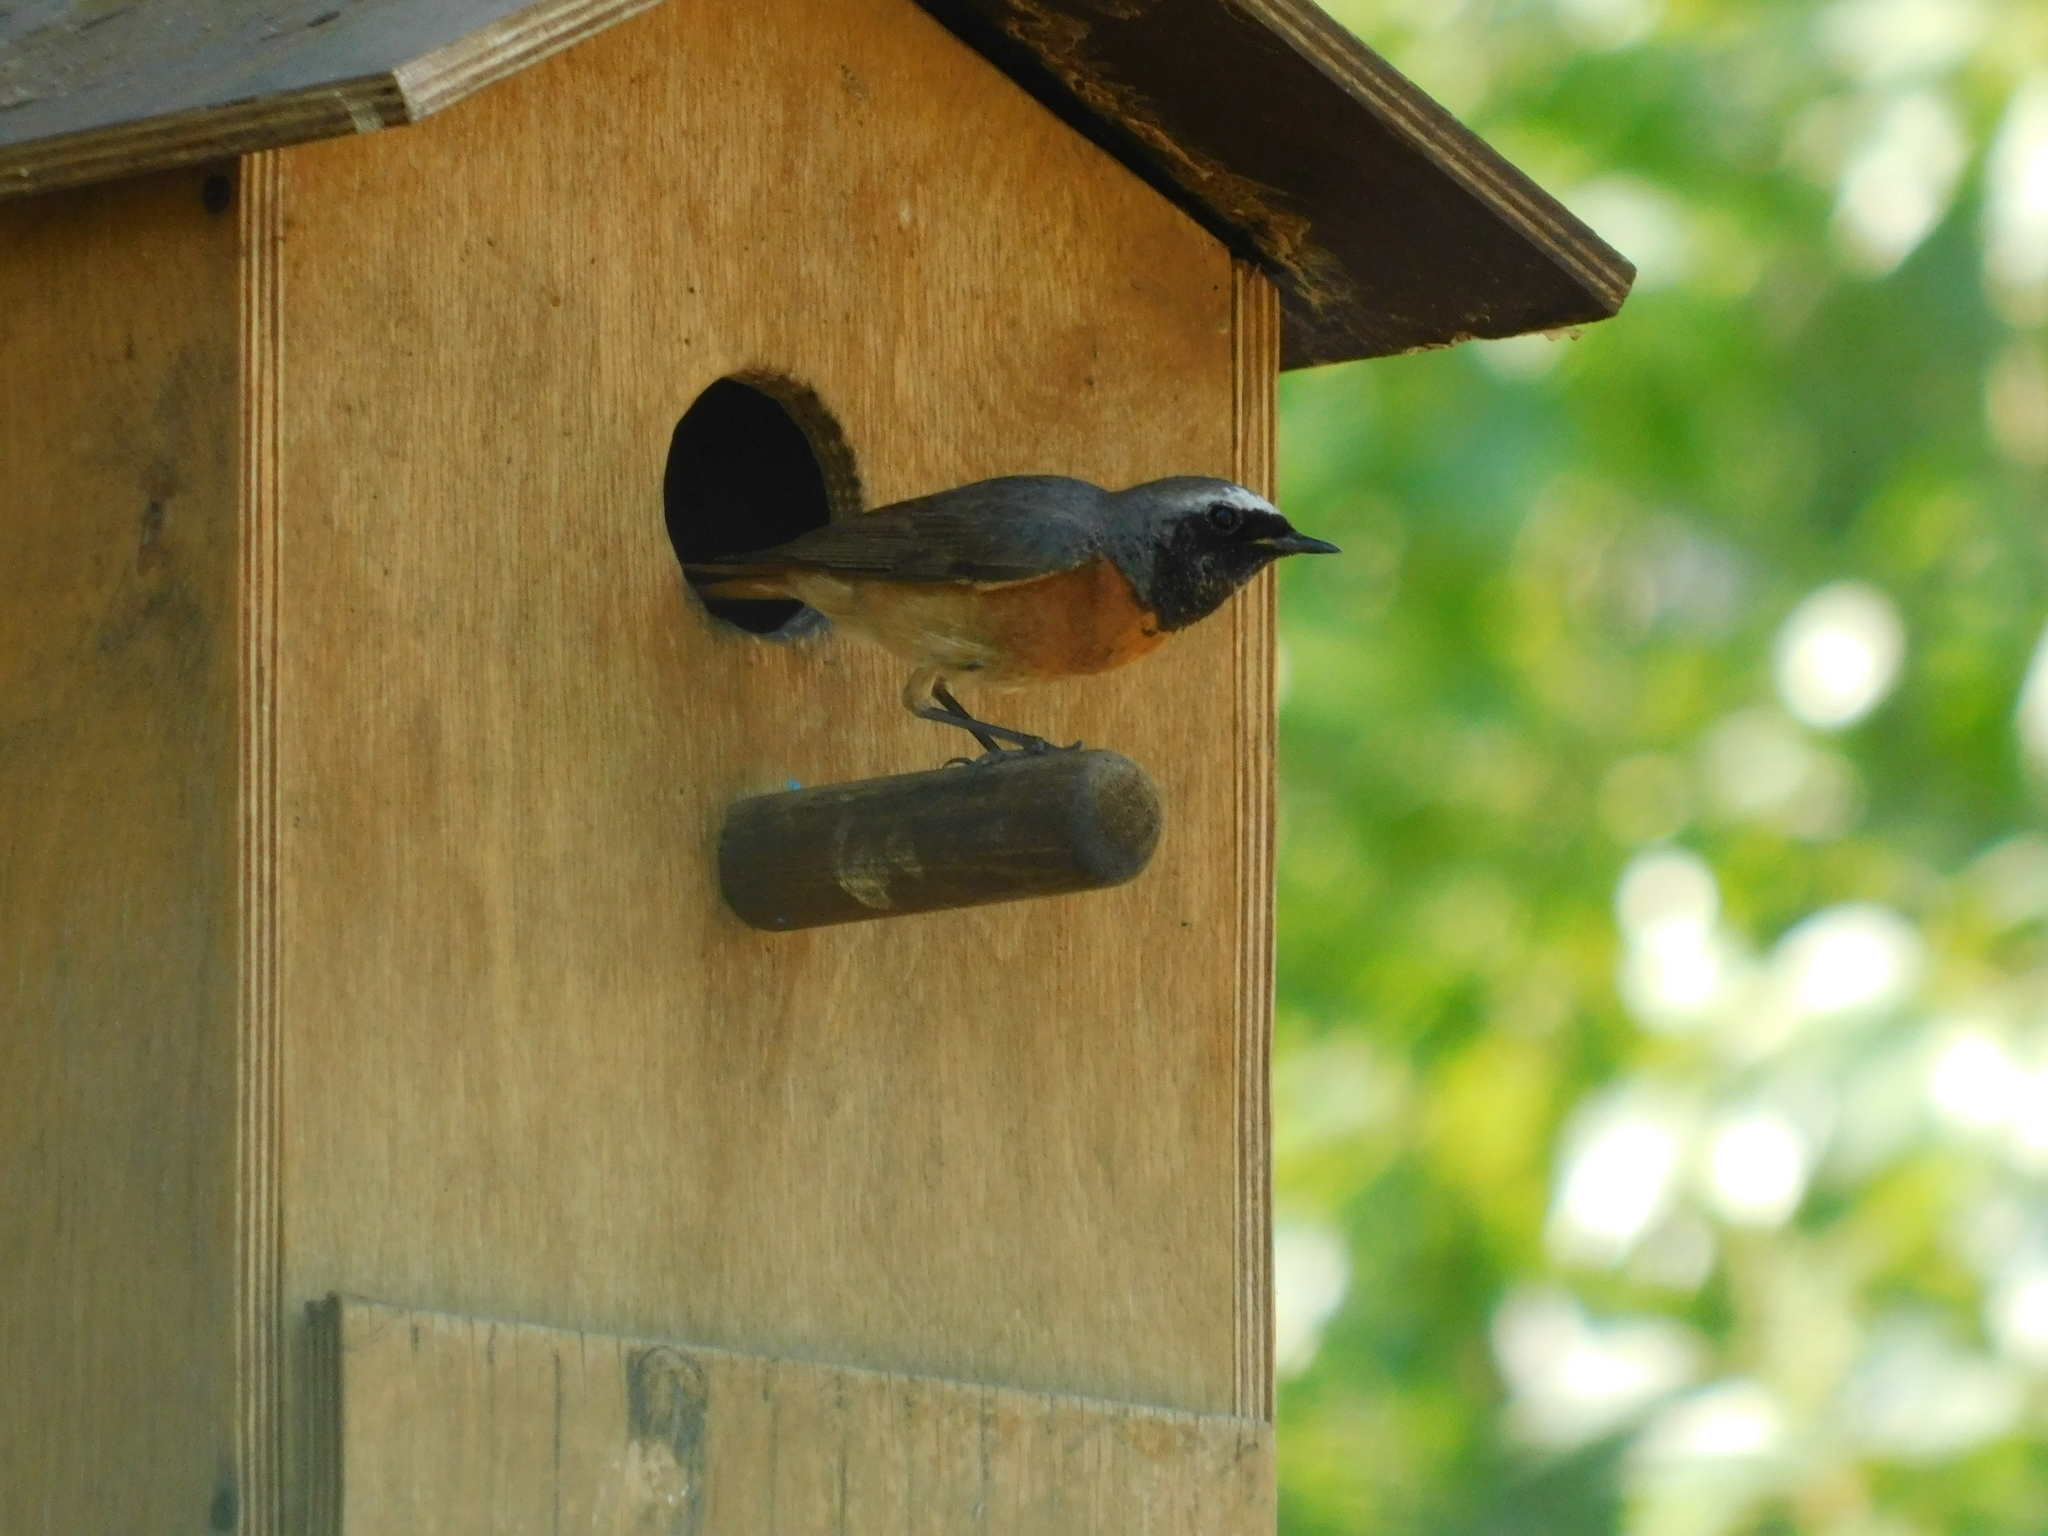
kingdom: Animalia
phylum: Chordata
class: Aves
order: Passeriformes
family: Muscicapidae
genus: Phoenicurus
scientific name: Phoenicurus phoenicurus
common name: Common redstart
